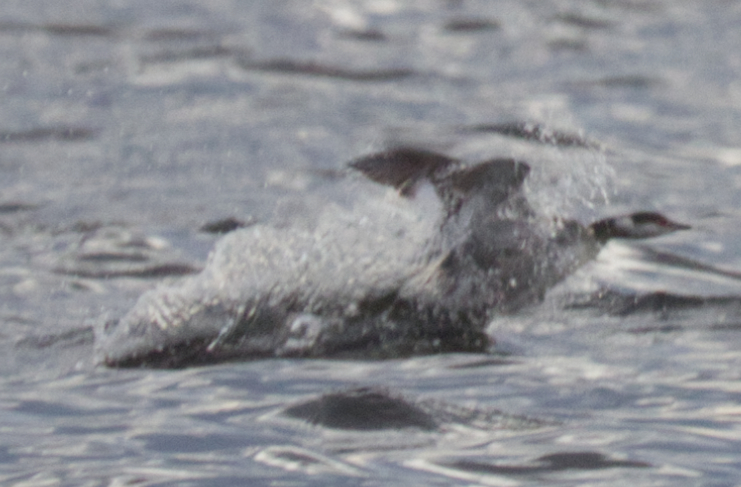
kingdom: Animalia
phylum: Chordata
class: Aves
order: Podicipediformes
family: Podicipedidae
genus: Podiceps
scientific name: Podiceps auritus
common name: Horned grebe
